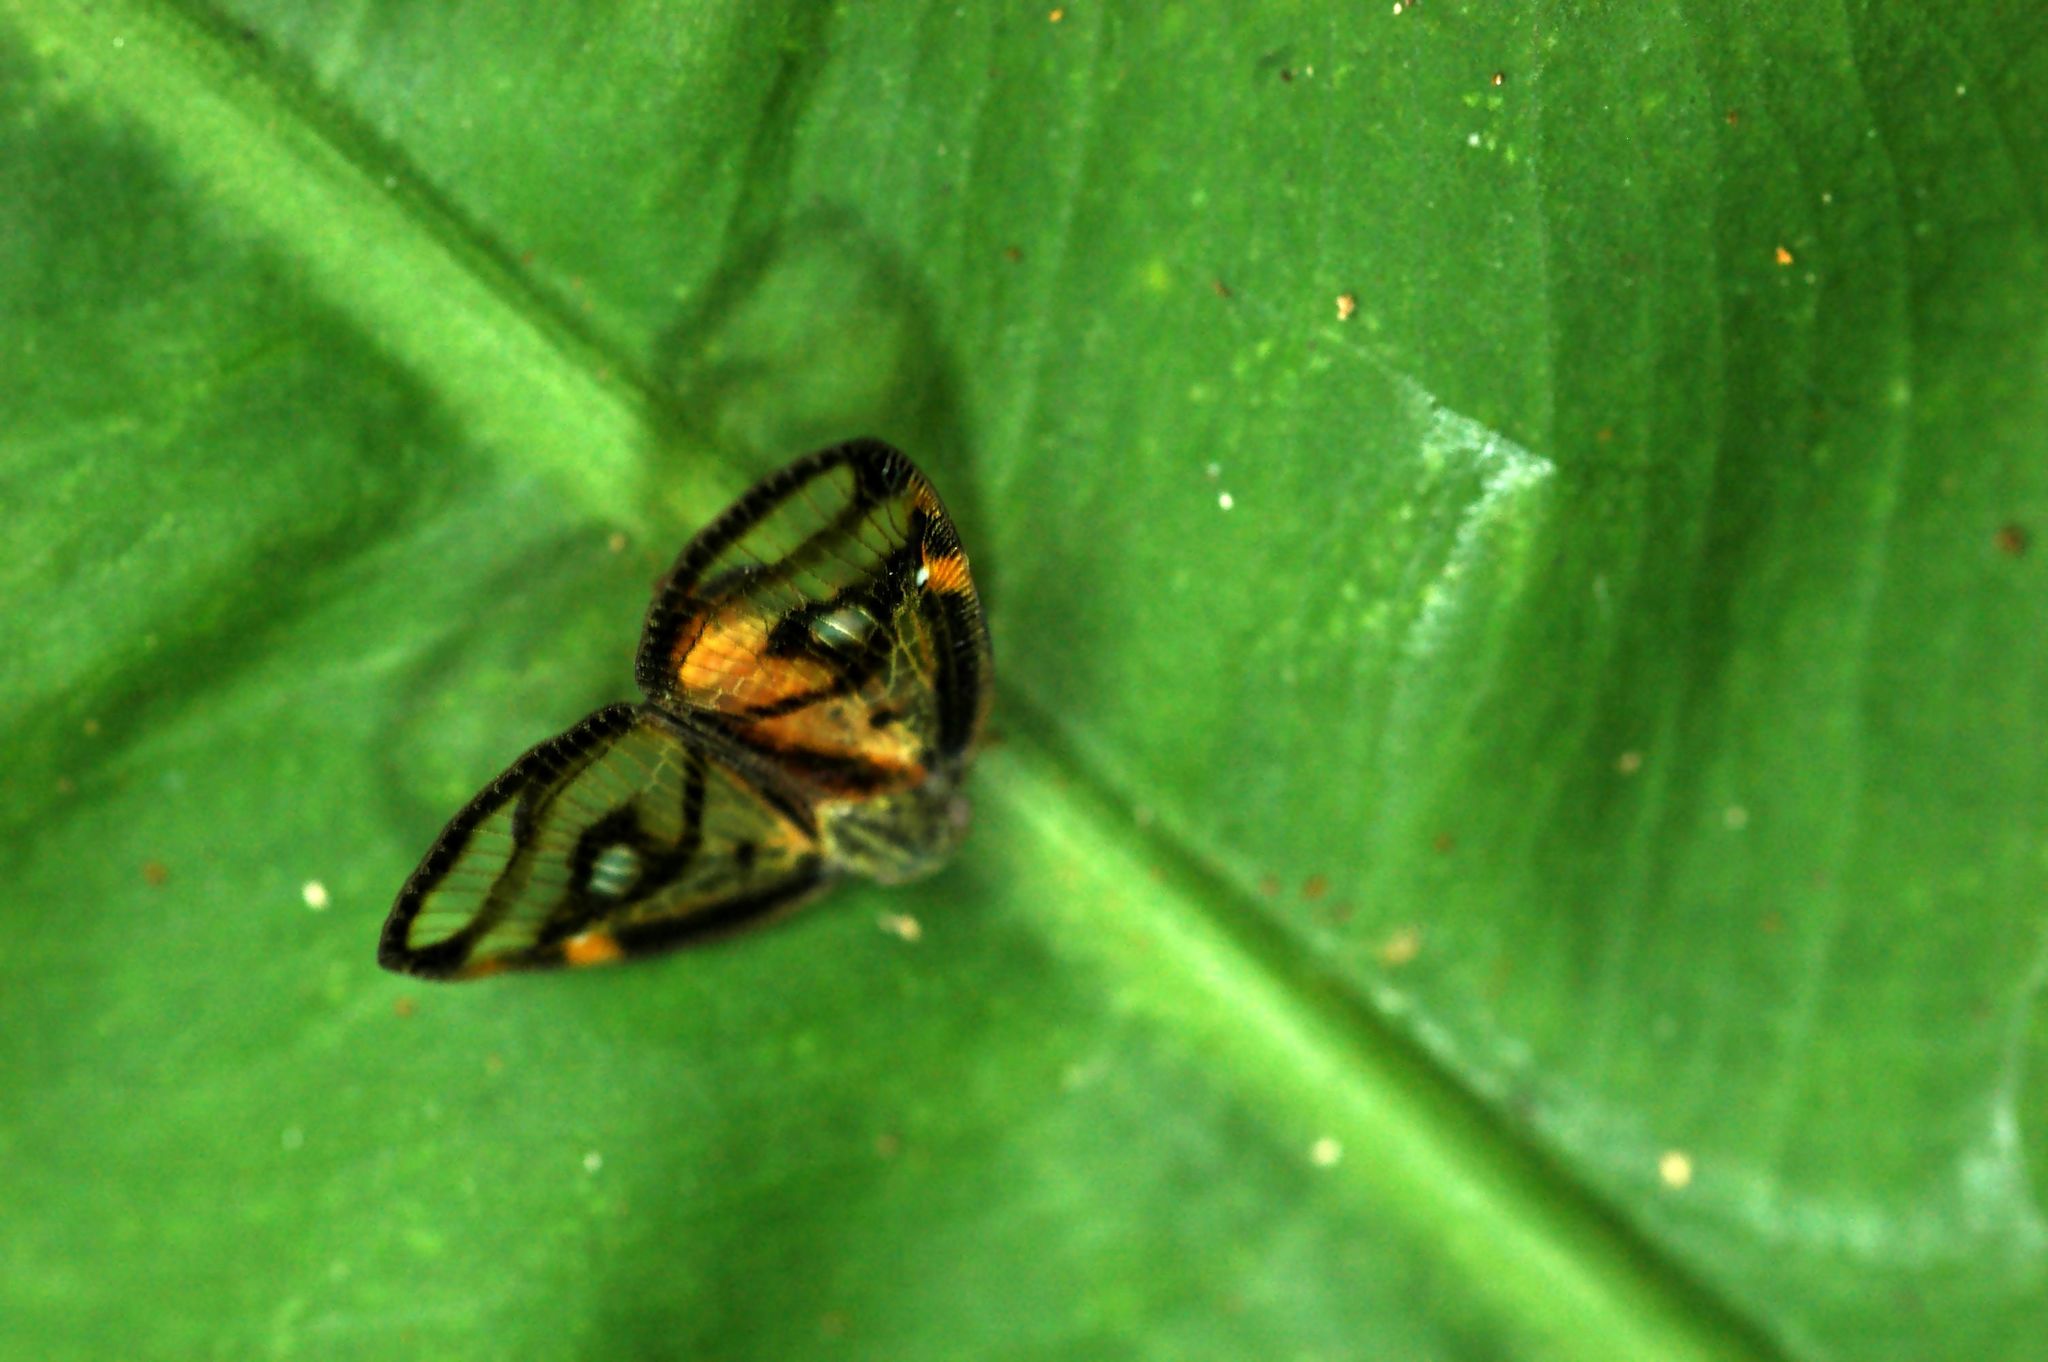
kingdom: Animalia
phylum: Arthropoda
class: Insecta
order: Hemiptera
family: Ricaniidae
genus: Euricania
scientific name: Euricania ocella
